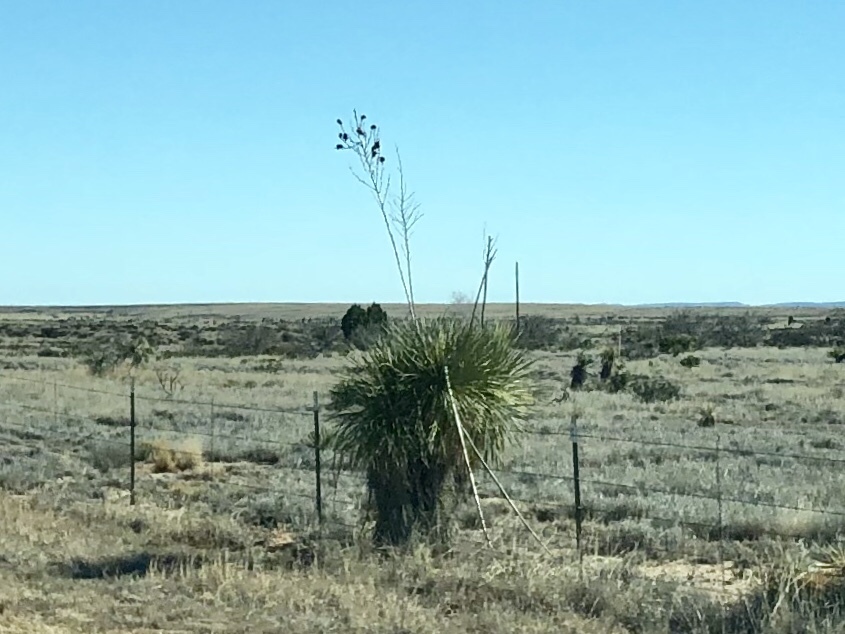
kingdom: Plantae
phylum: Tracheophyta
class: Liliopsida
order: Asparagales
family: Asparagaceae
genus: Yucca
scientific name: Yucca elata
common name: Palmella
